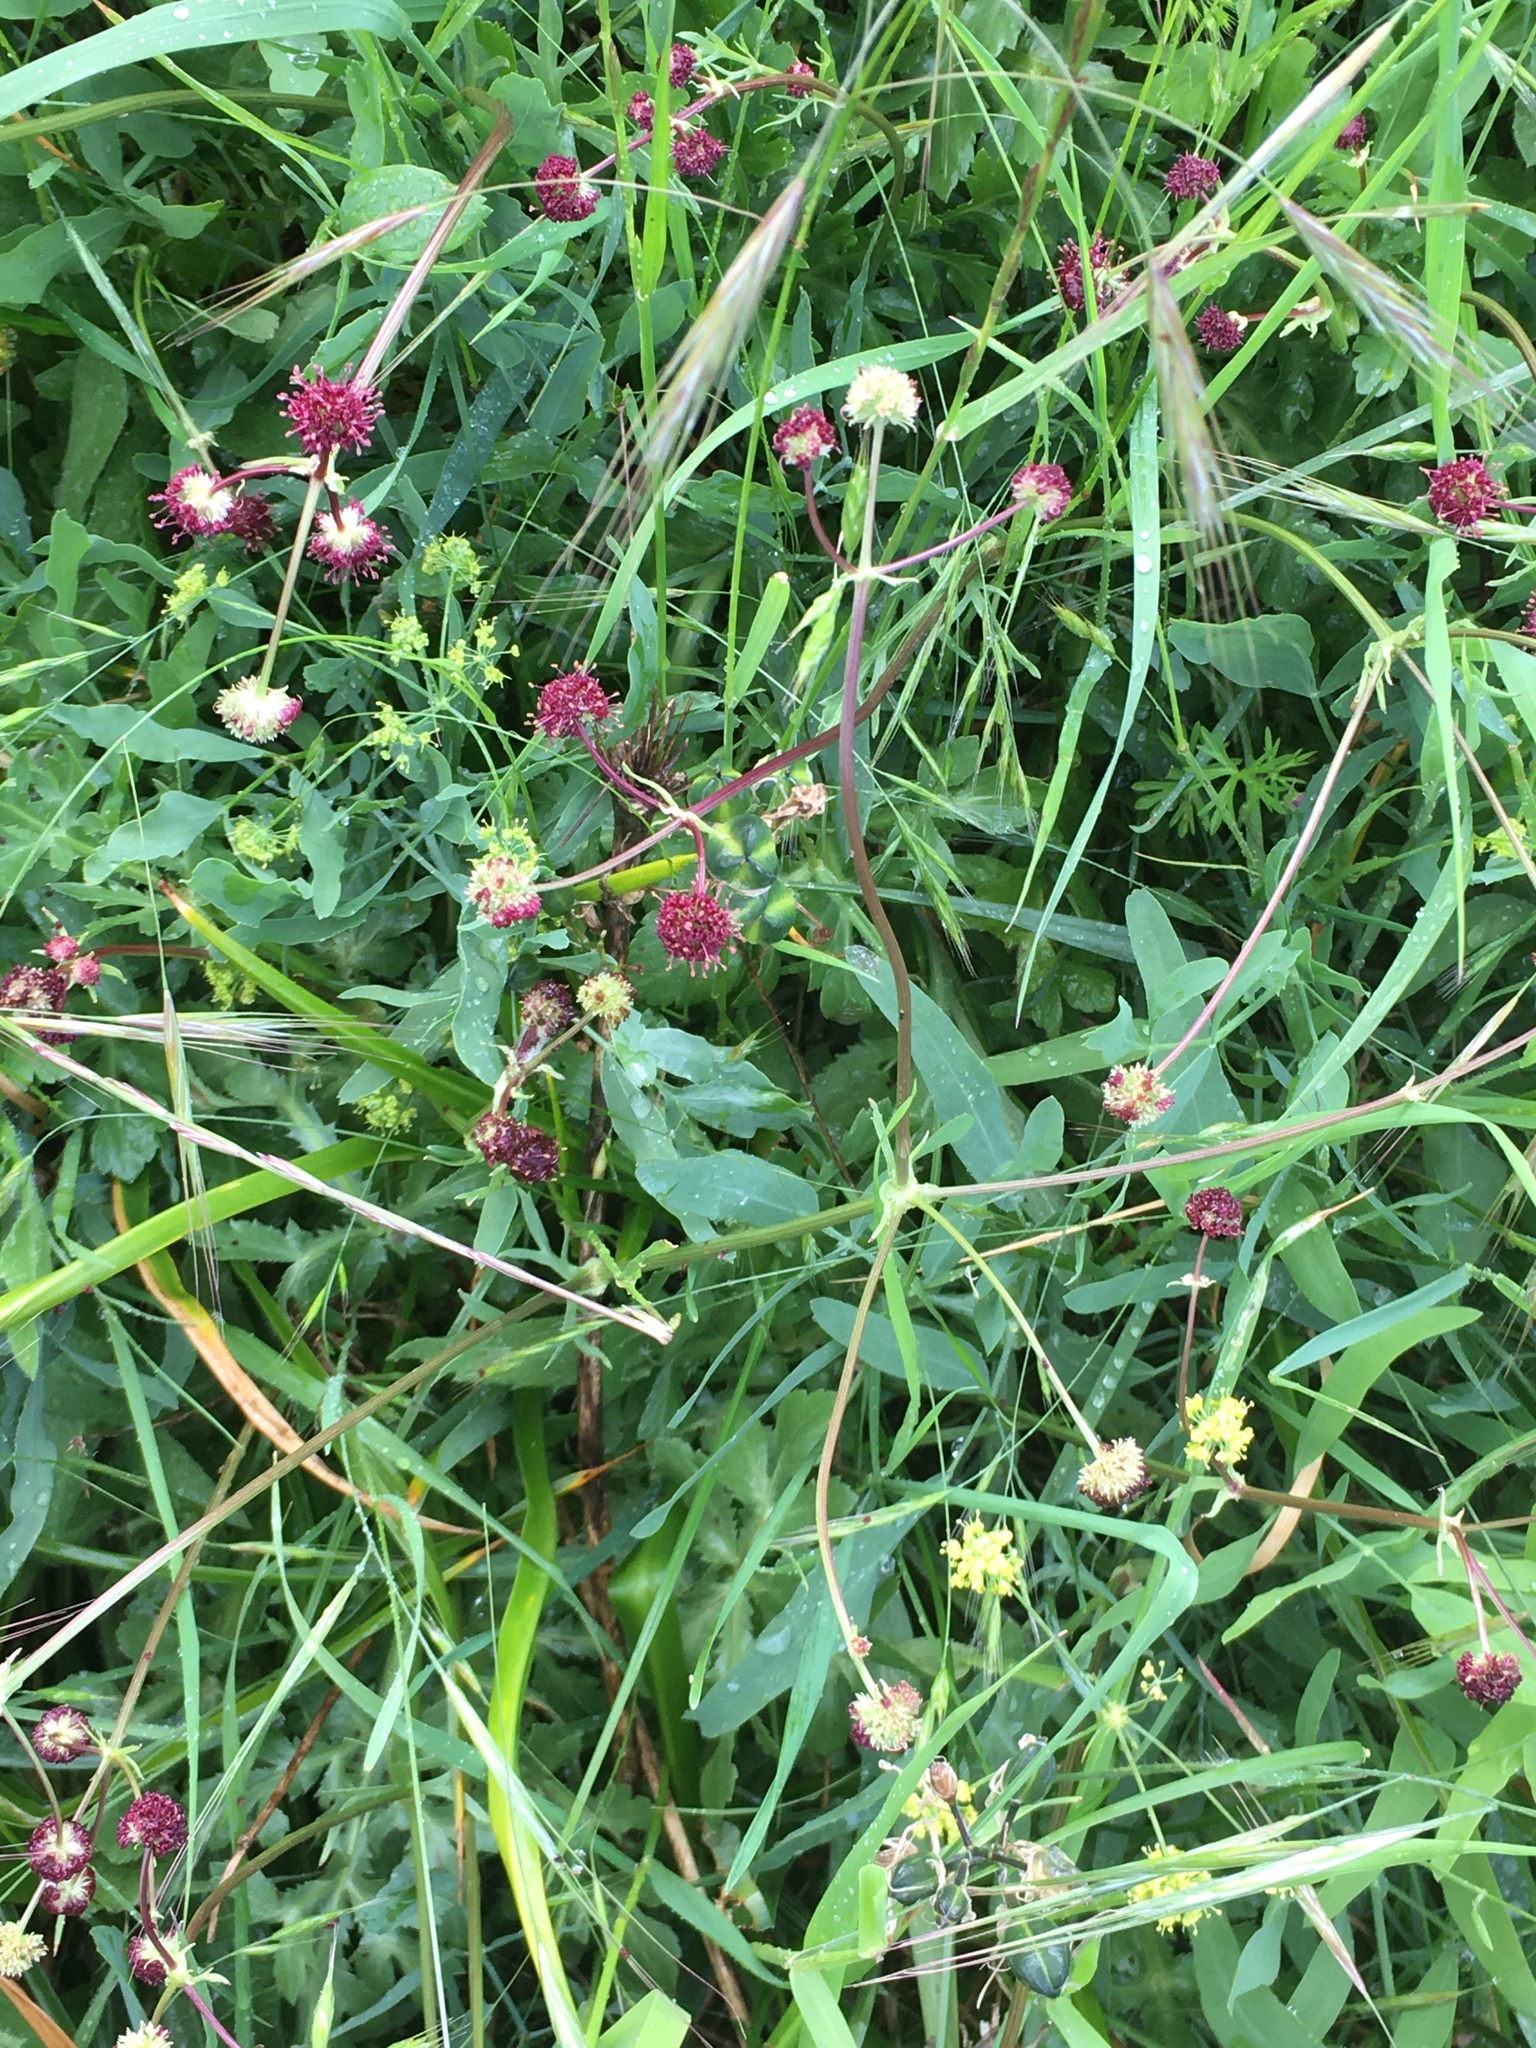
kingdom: Plantae
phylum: Tracheophyta
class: Magnoliopsida
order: Apiales
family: Apiaceae
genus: Sanicula
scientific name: Sanicula bipinnatifida
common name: Shoe-buttons
